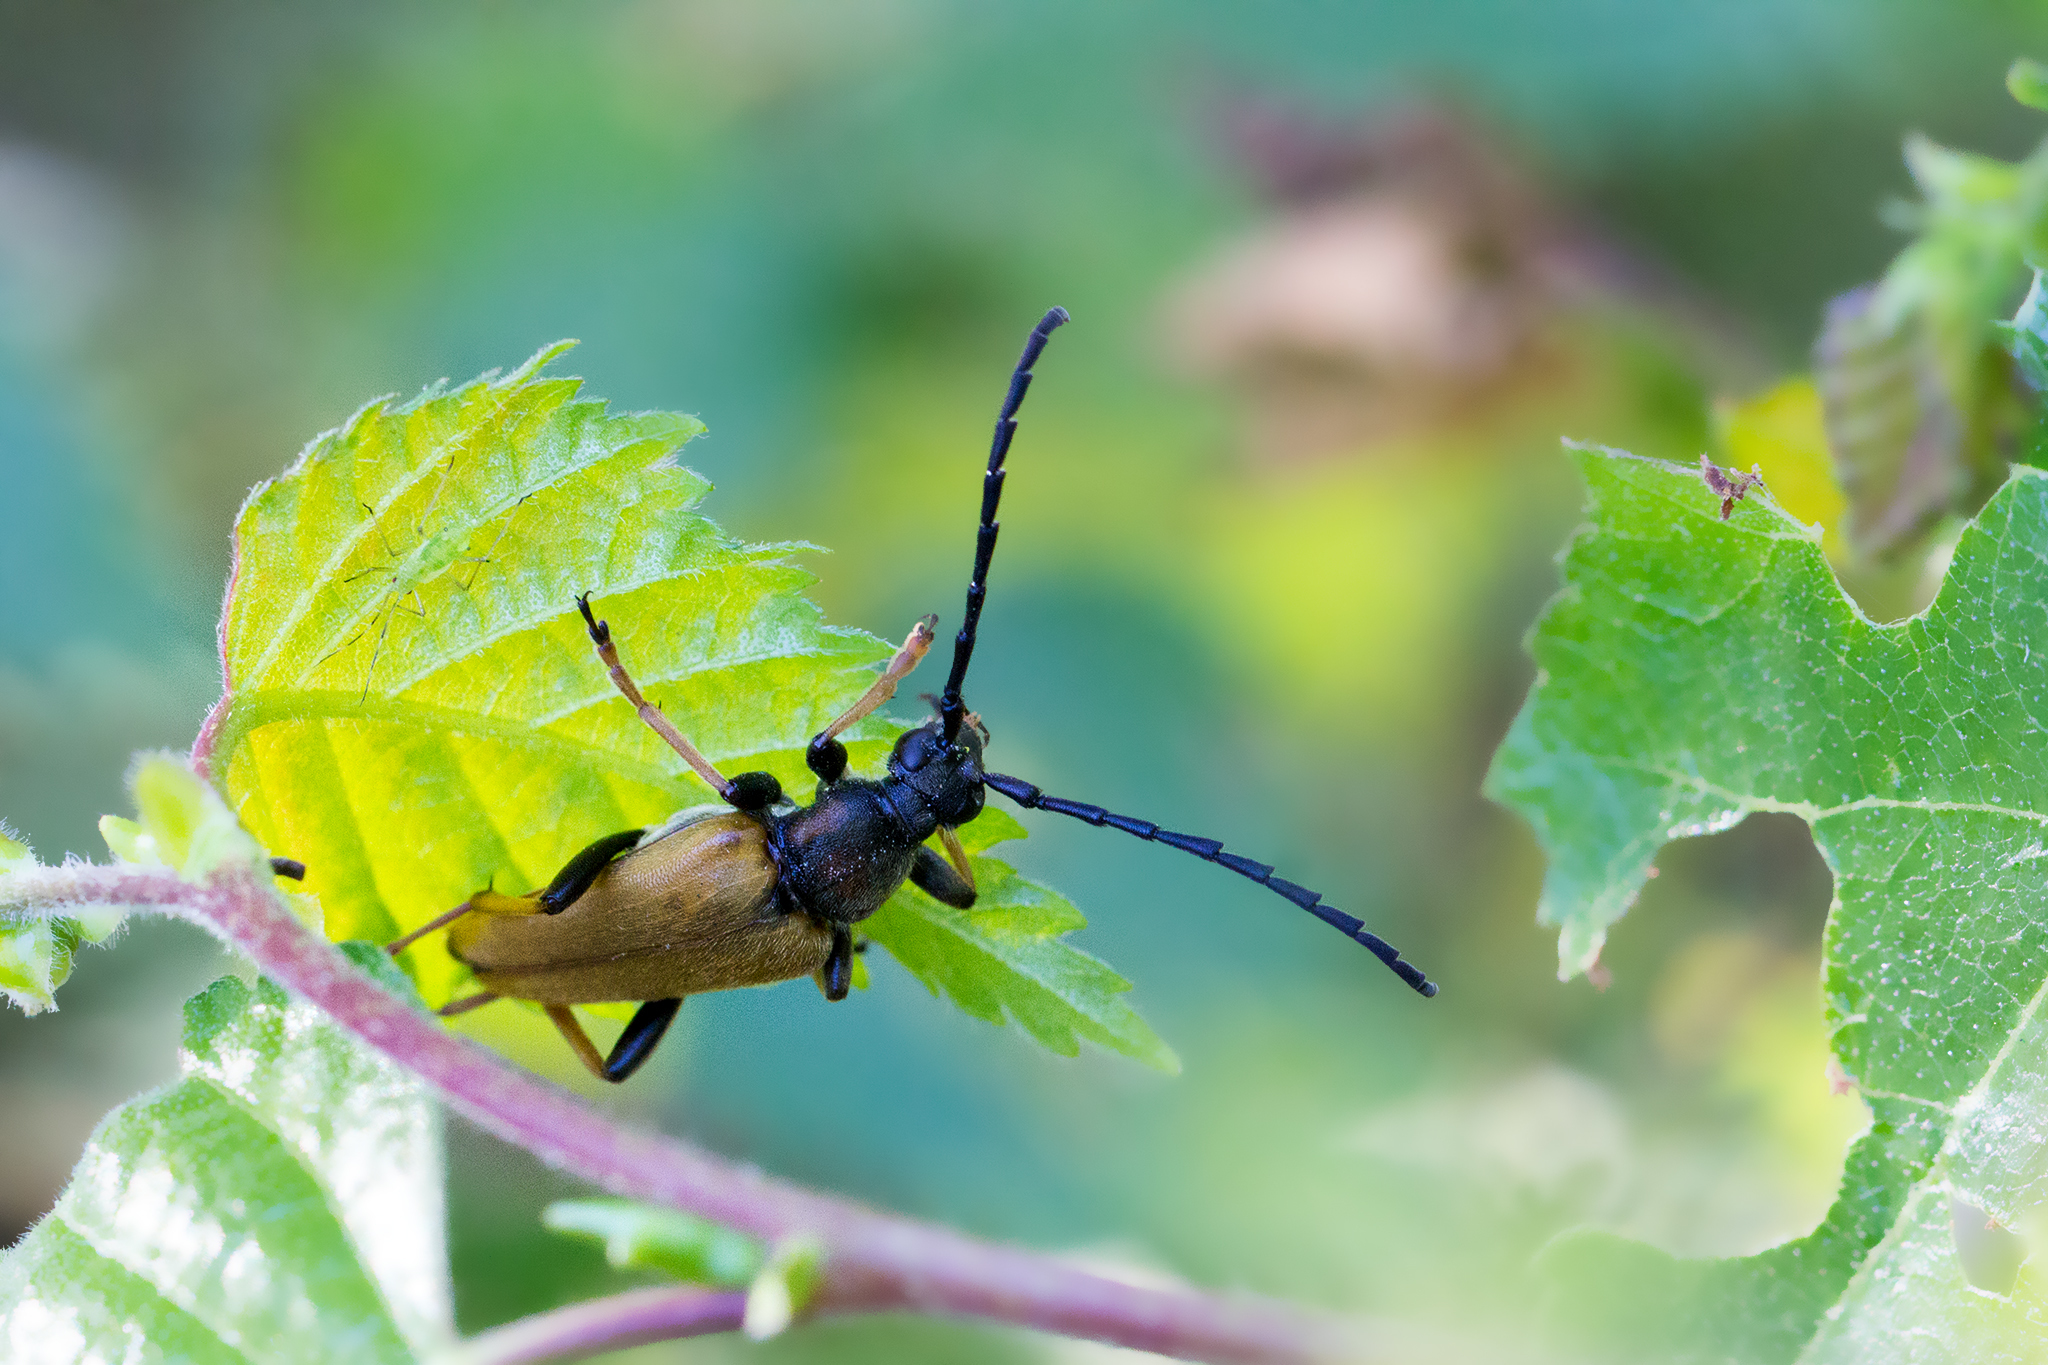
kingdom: Animalia
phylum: Arthropoda
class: Insecta
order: Coleoptera
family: Cerambycidae
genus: Stictoleptura
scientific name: Stictoleptura rubra
